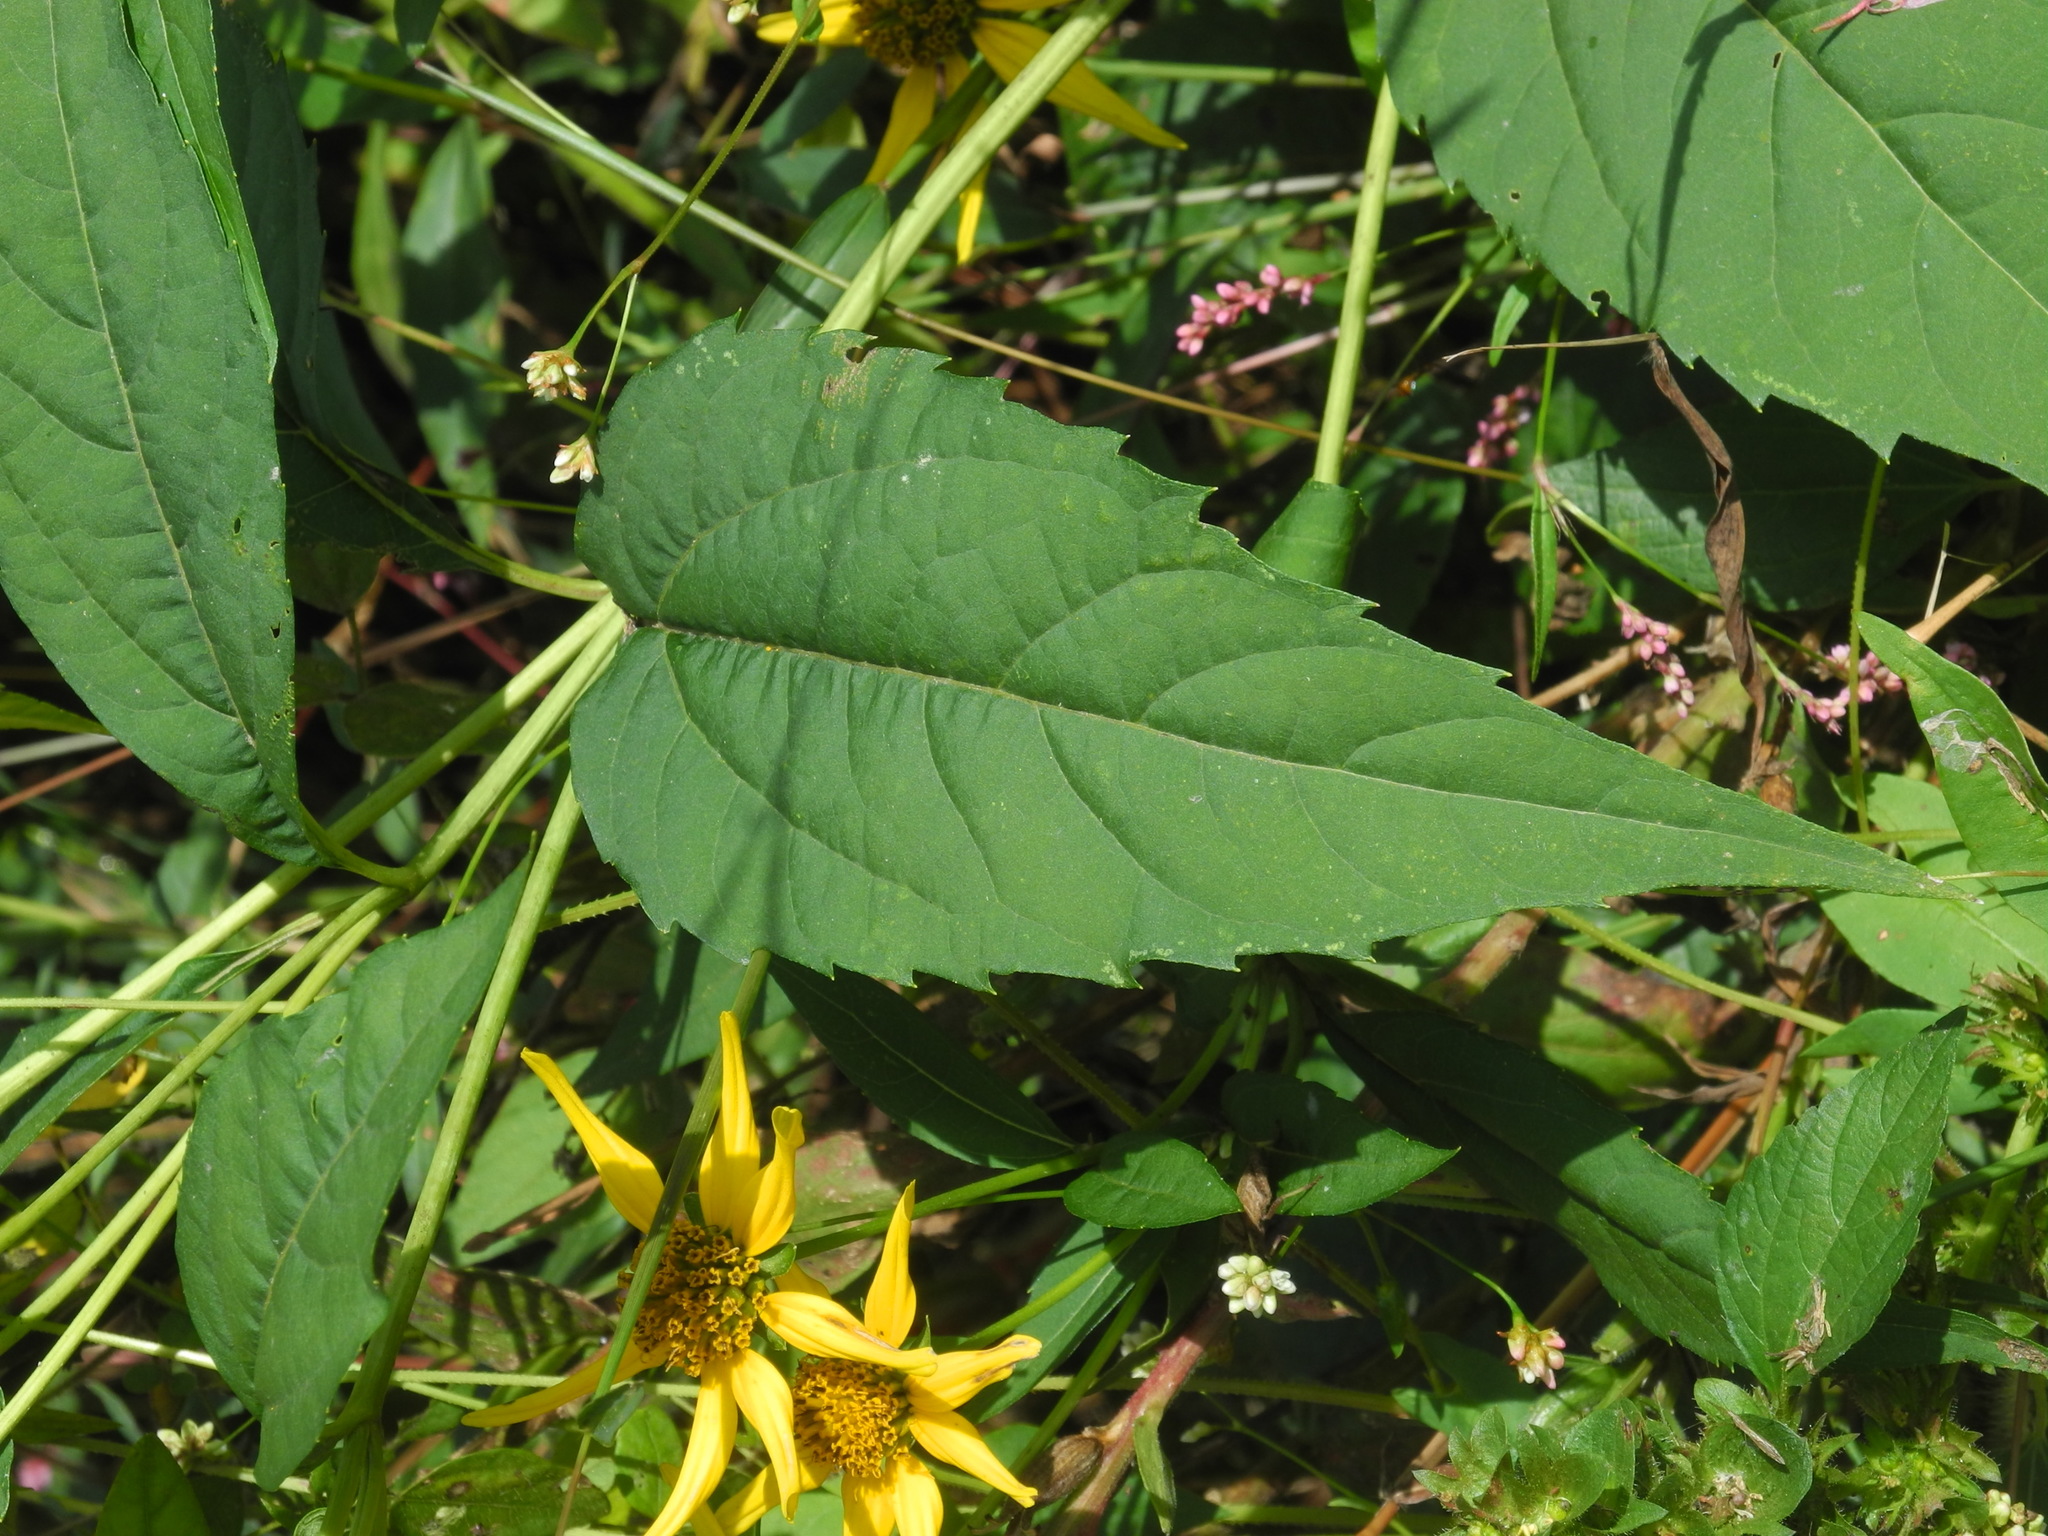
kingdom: Plantae
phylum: Tracheophyta
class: Magnoliopsida
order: Asterales
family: Asteraceae
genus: Heliopsis
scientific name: Heliopsis helianthoides
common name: False sunflower
